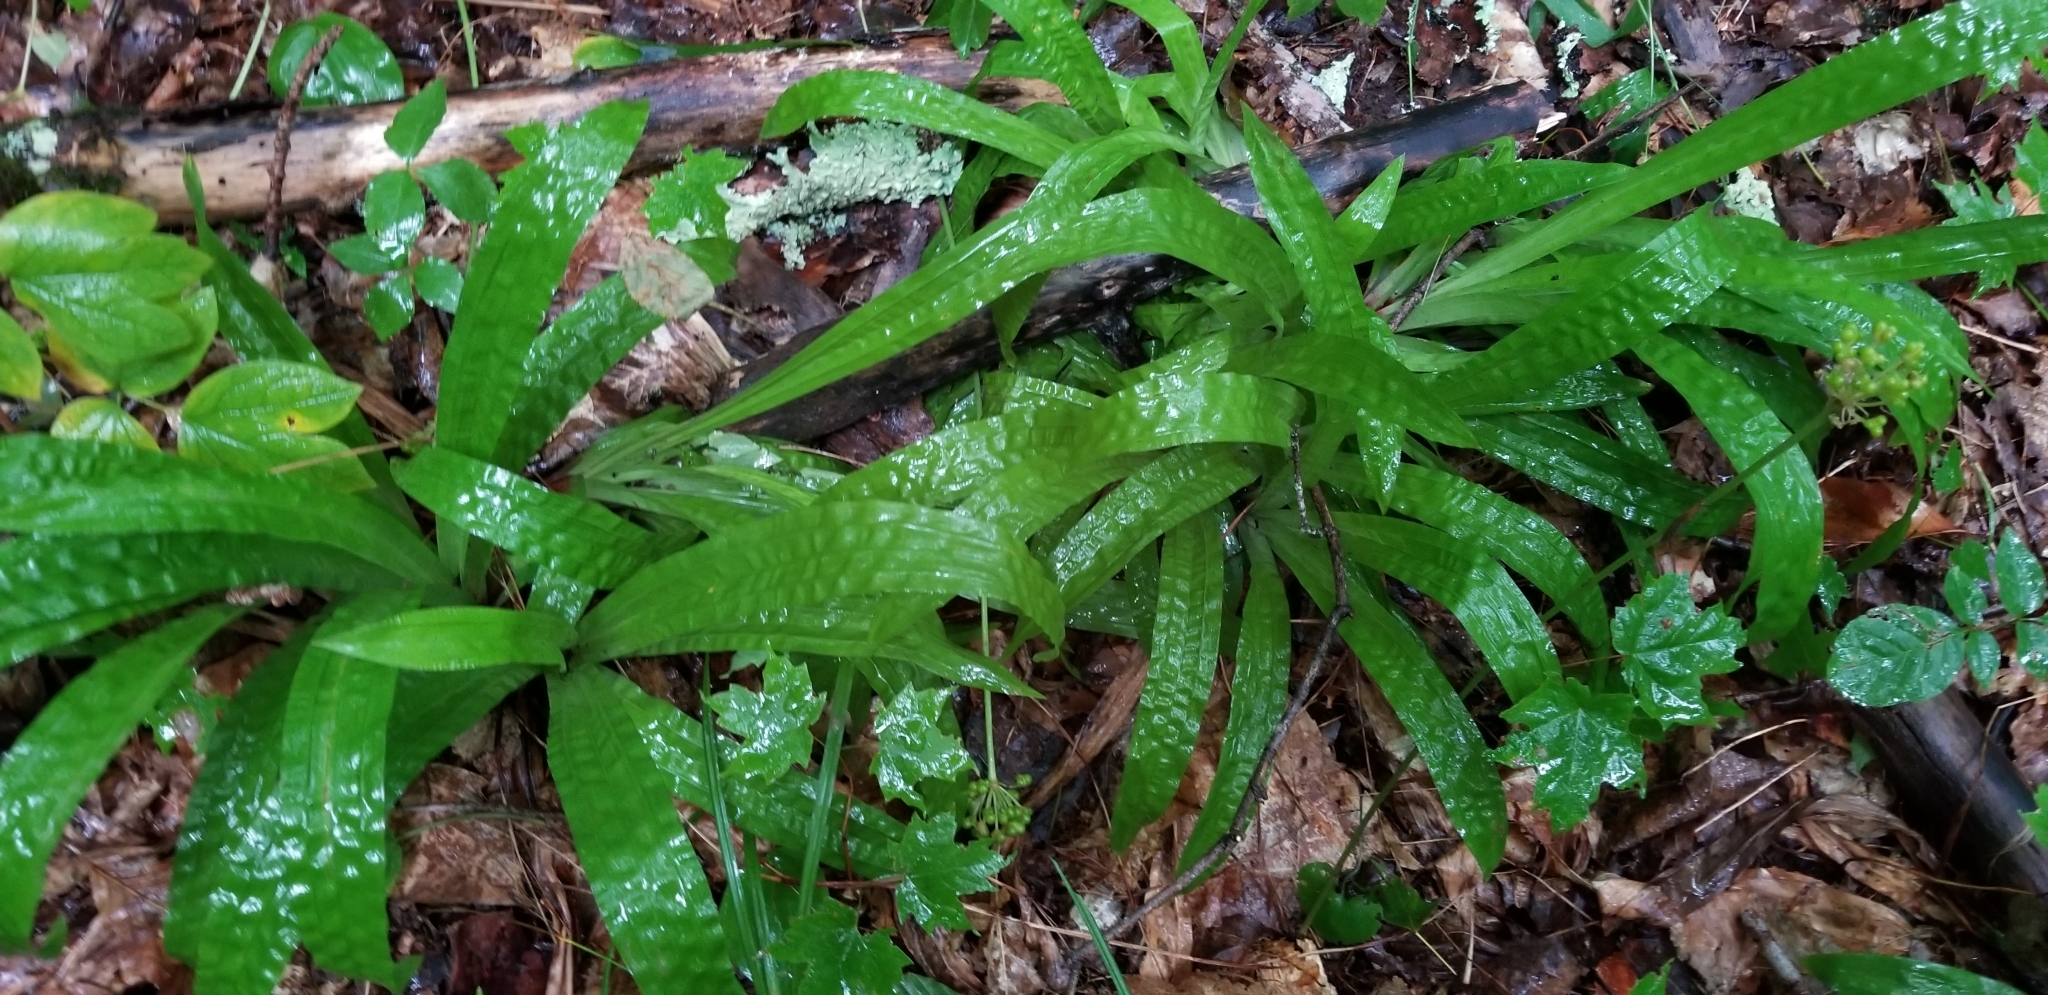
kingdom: Plantae
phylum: Tracheophyta
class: Liliopsida
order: Poales
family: Cyperaceae
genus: Carex
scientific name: Carex plantaginea
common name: Plantain-leaved sedge
